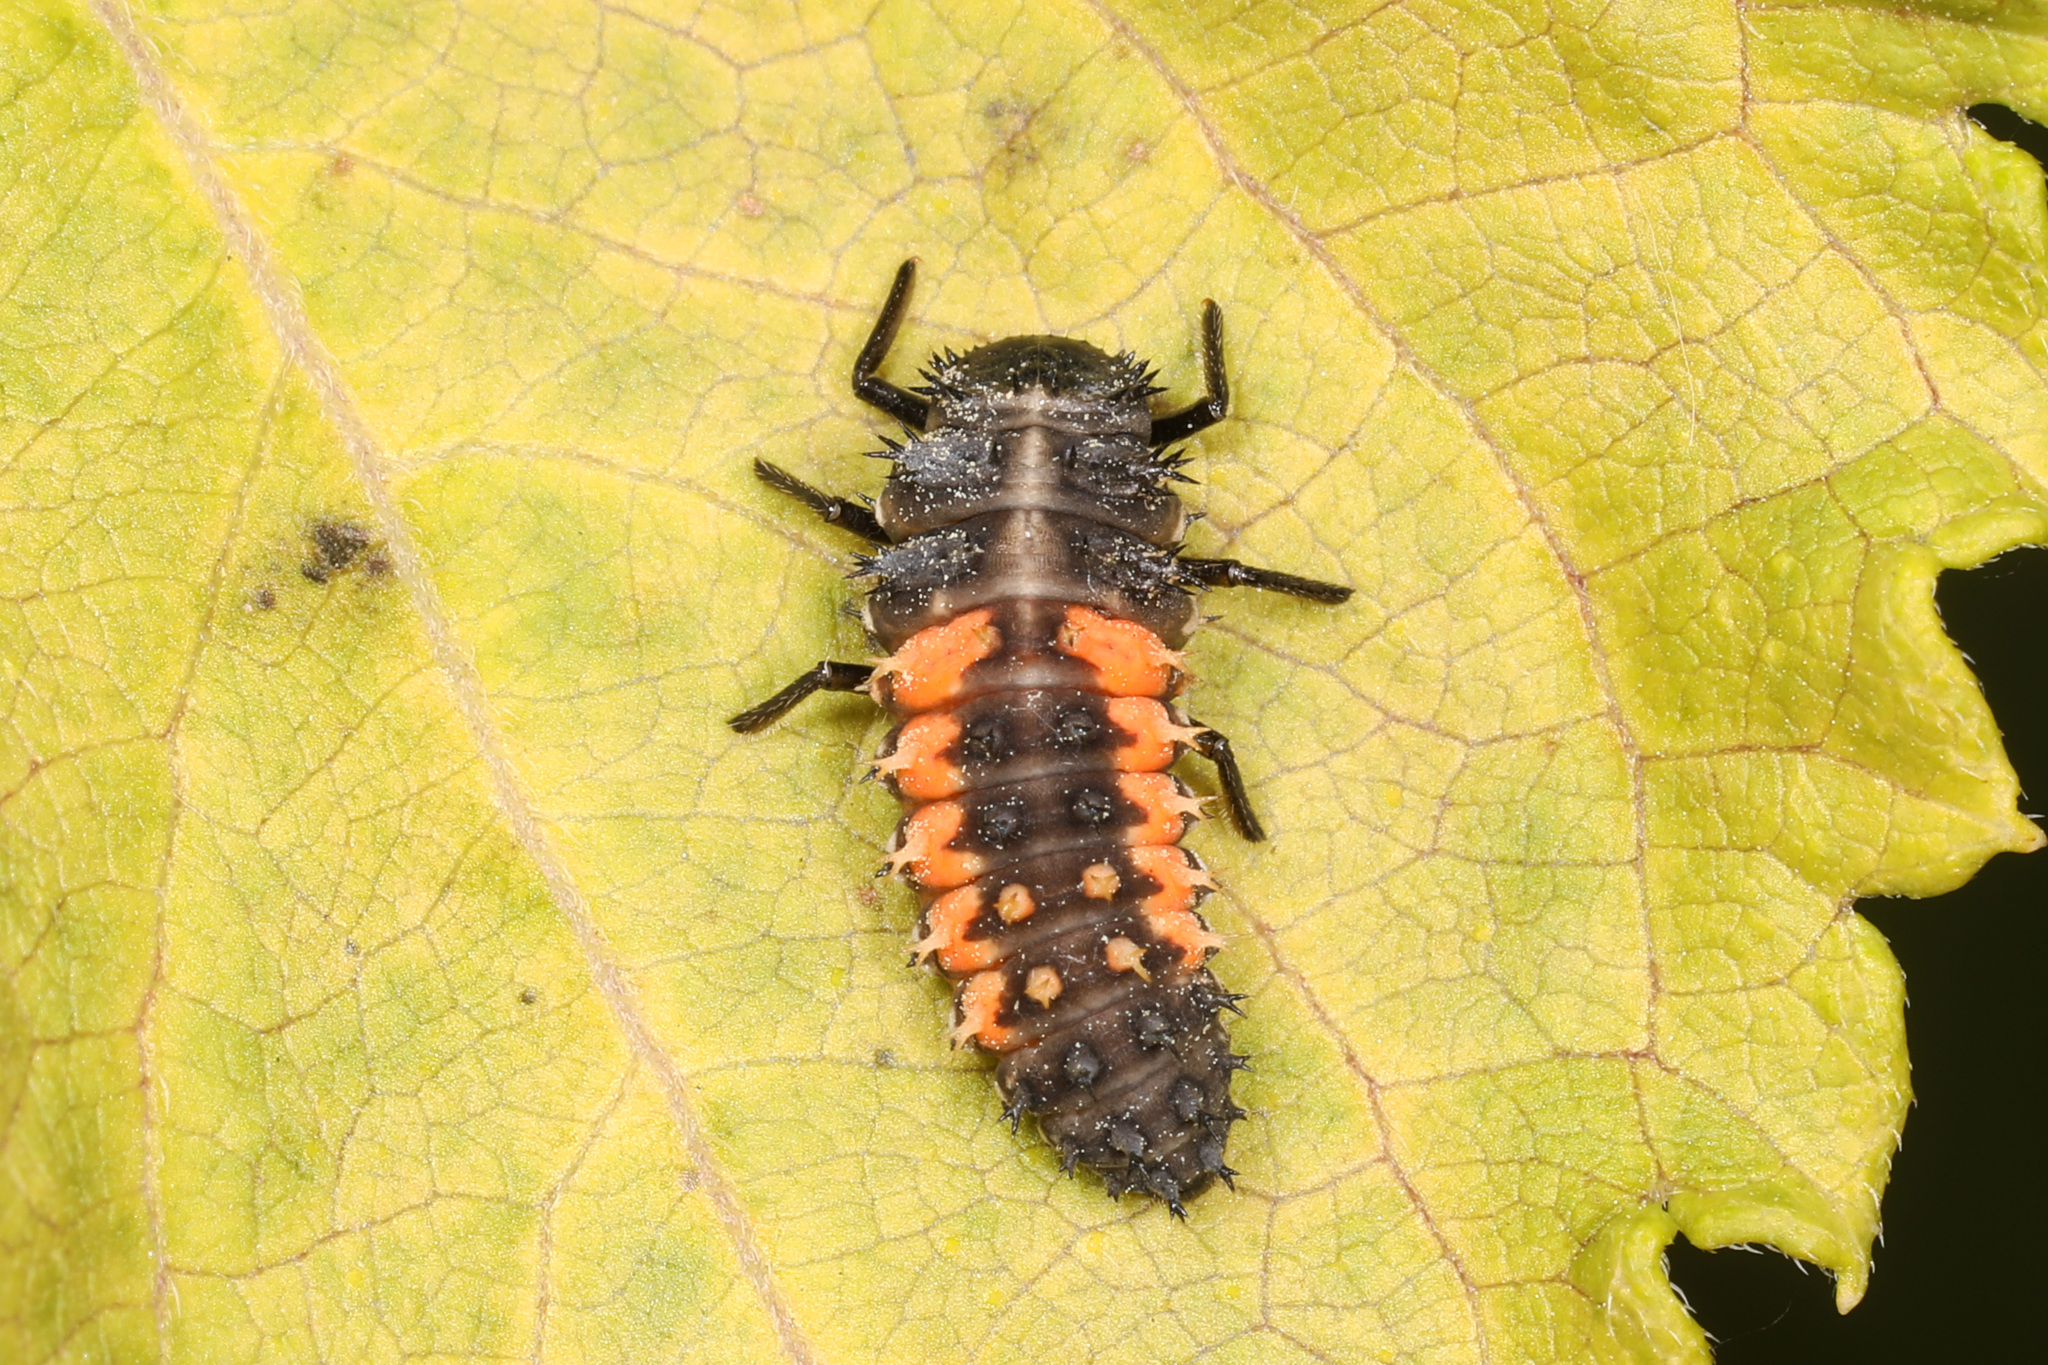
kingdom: Animalia
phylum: Arthropoda
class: Insecta
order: Coleoptera
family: Coccinellidae
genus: Harmonia
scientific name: Harmonia axyridis
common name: Harlequin ladybird
